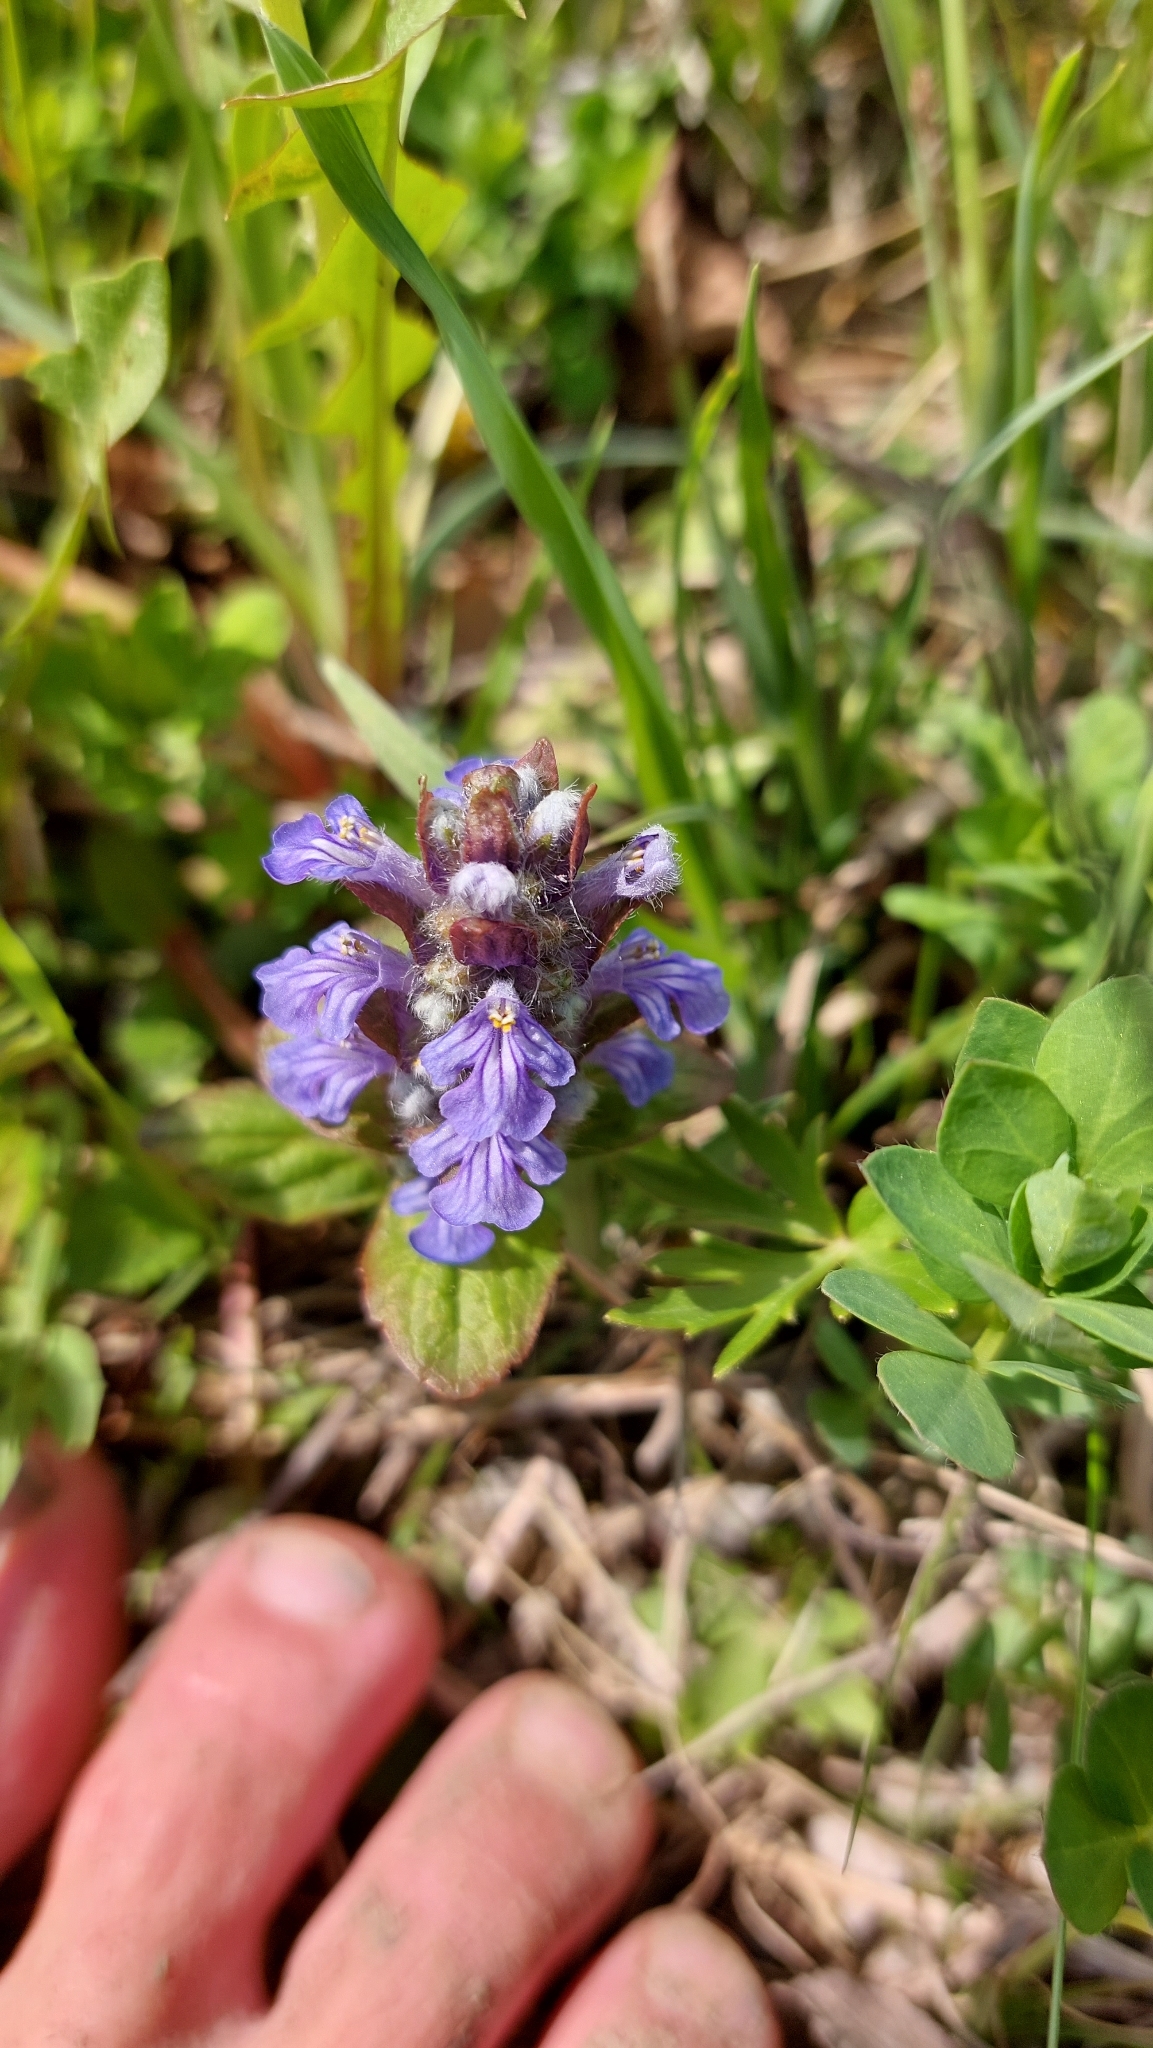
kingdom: Plantae
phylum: Tracheophyta
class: Magnoliopsida
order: Lamiales
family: Lamiaceae
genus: Ajuga
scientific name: Ajuga reptans
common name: Bugle
